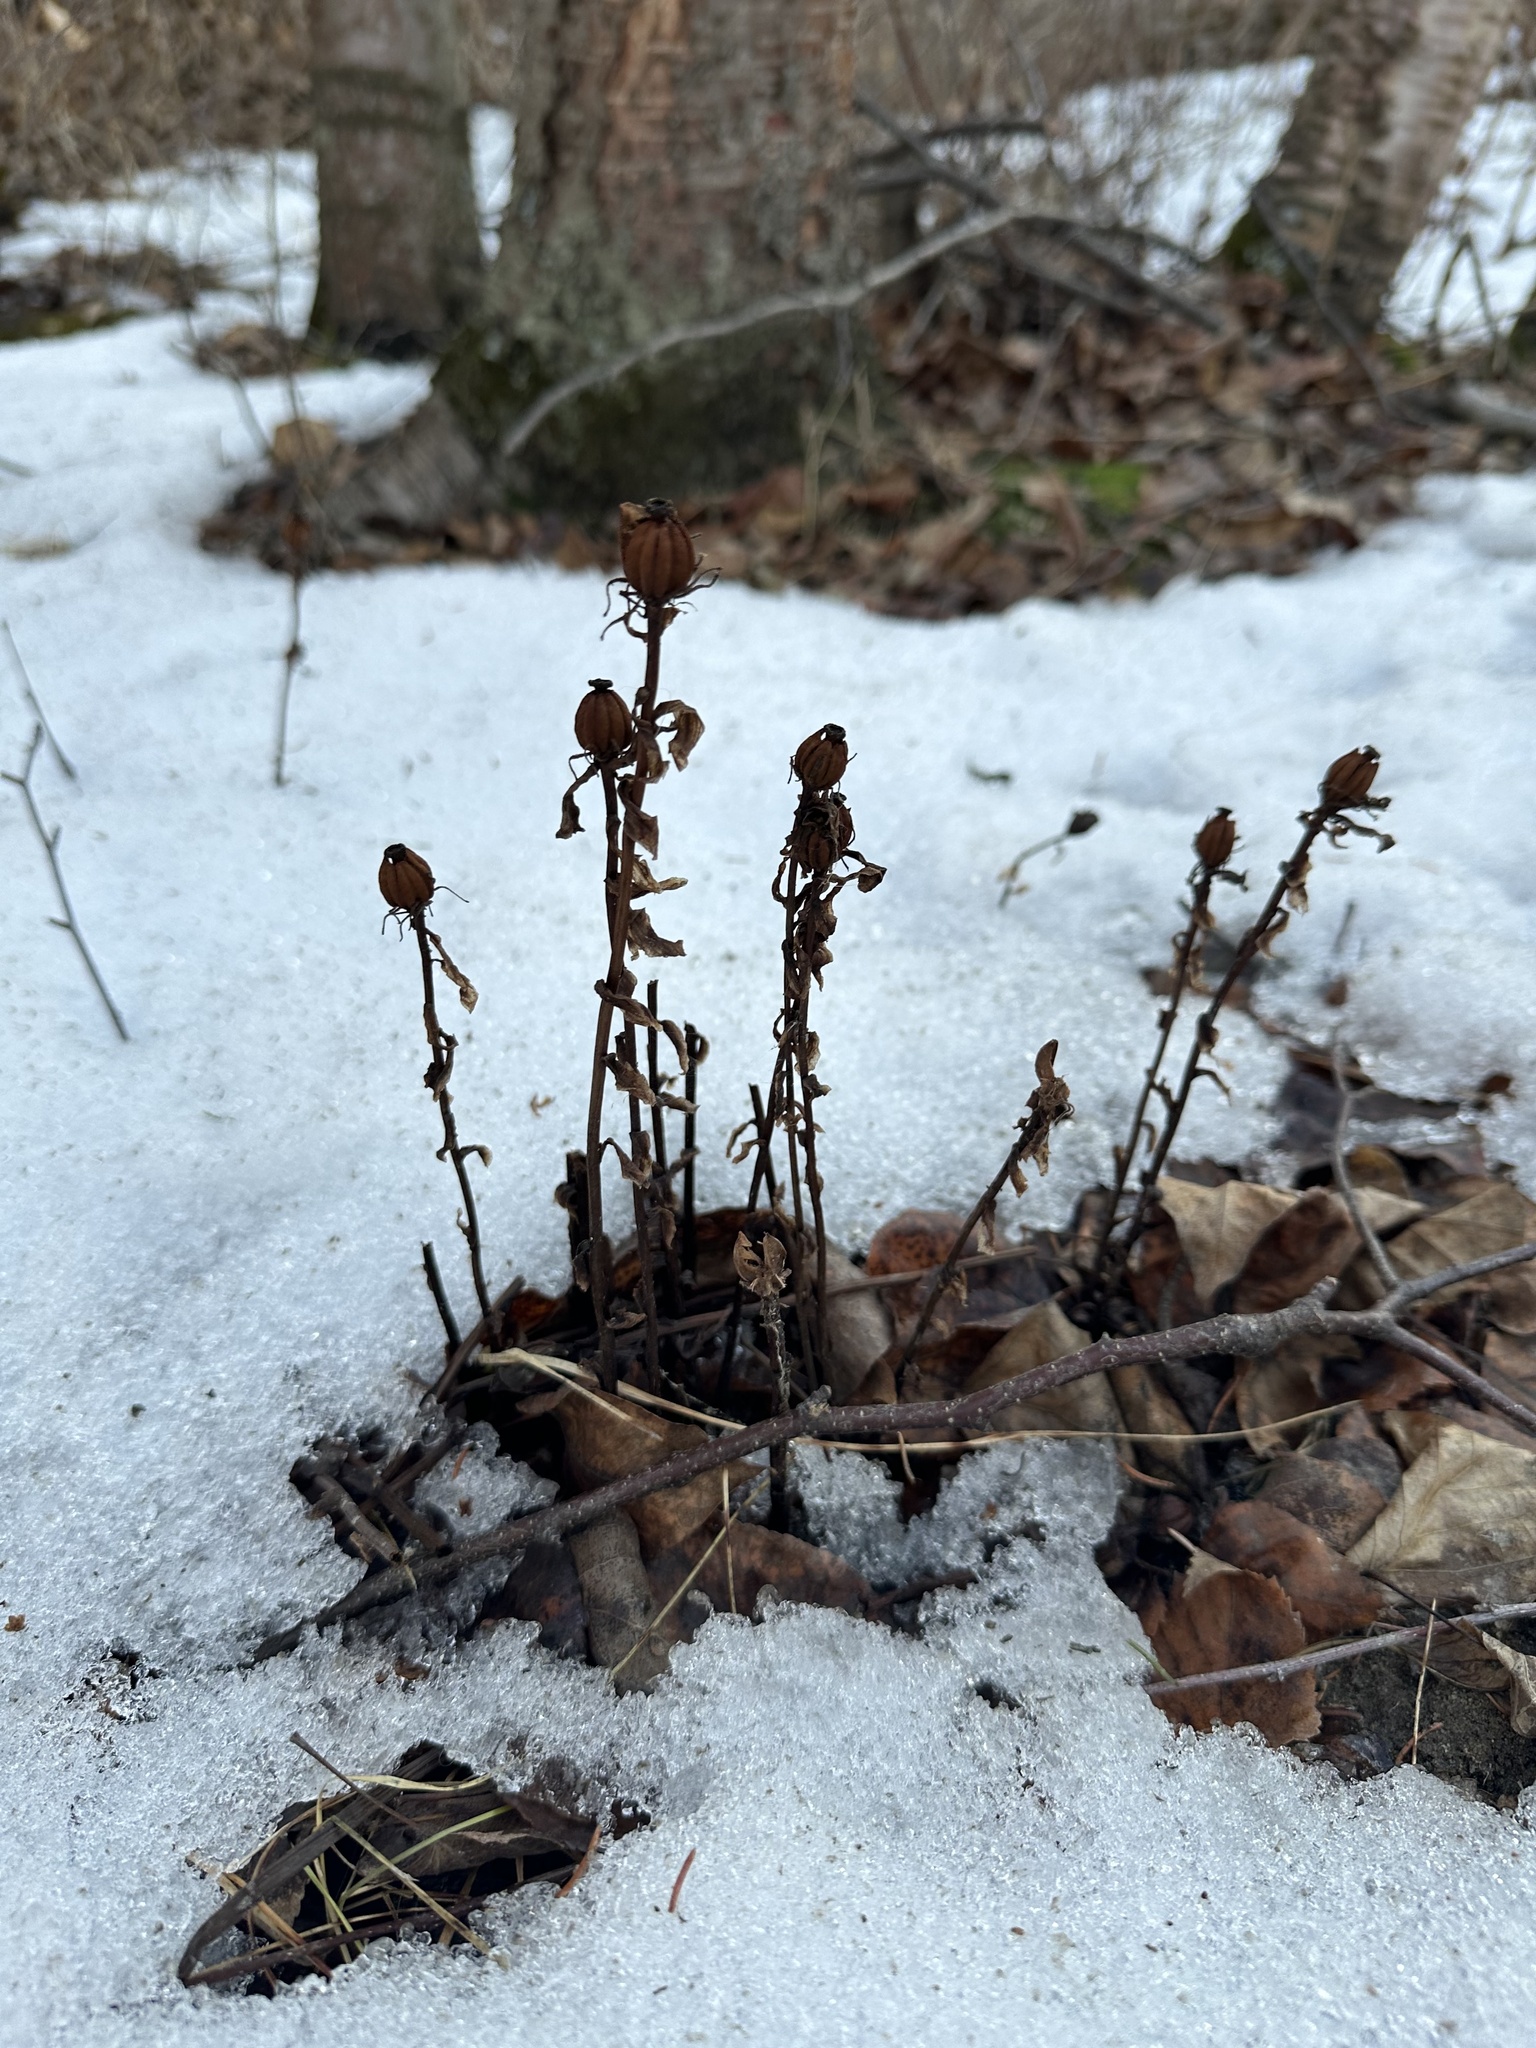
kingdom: Plantae
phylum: Tracheophyta
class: Magnoliopsida
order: Ericales
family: Ericaceae
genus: Monotropa
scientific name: Monotropa uniflora
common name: Convulsion root
